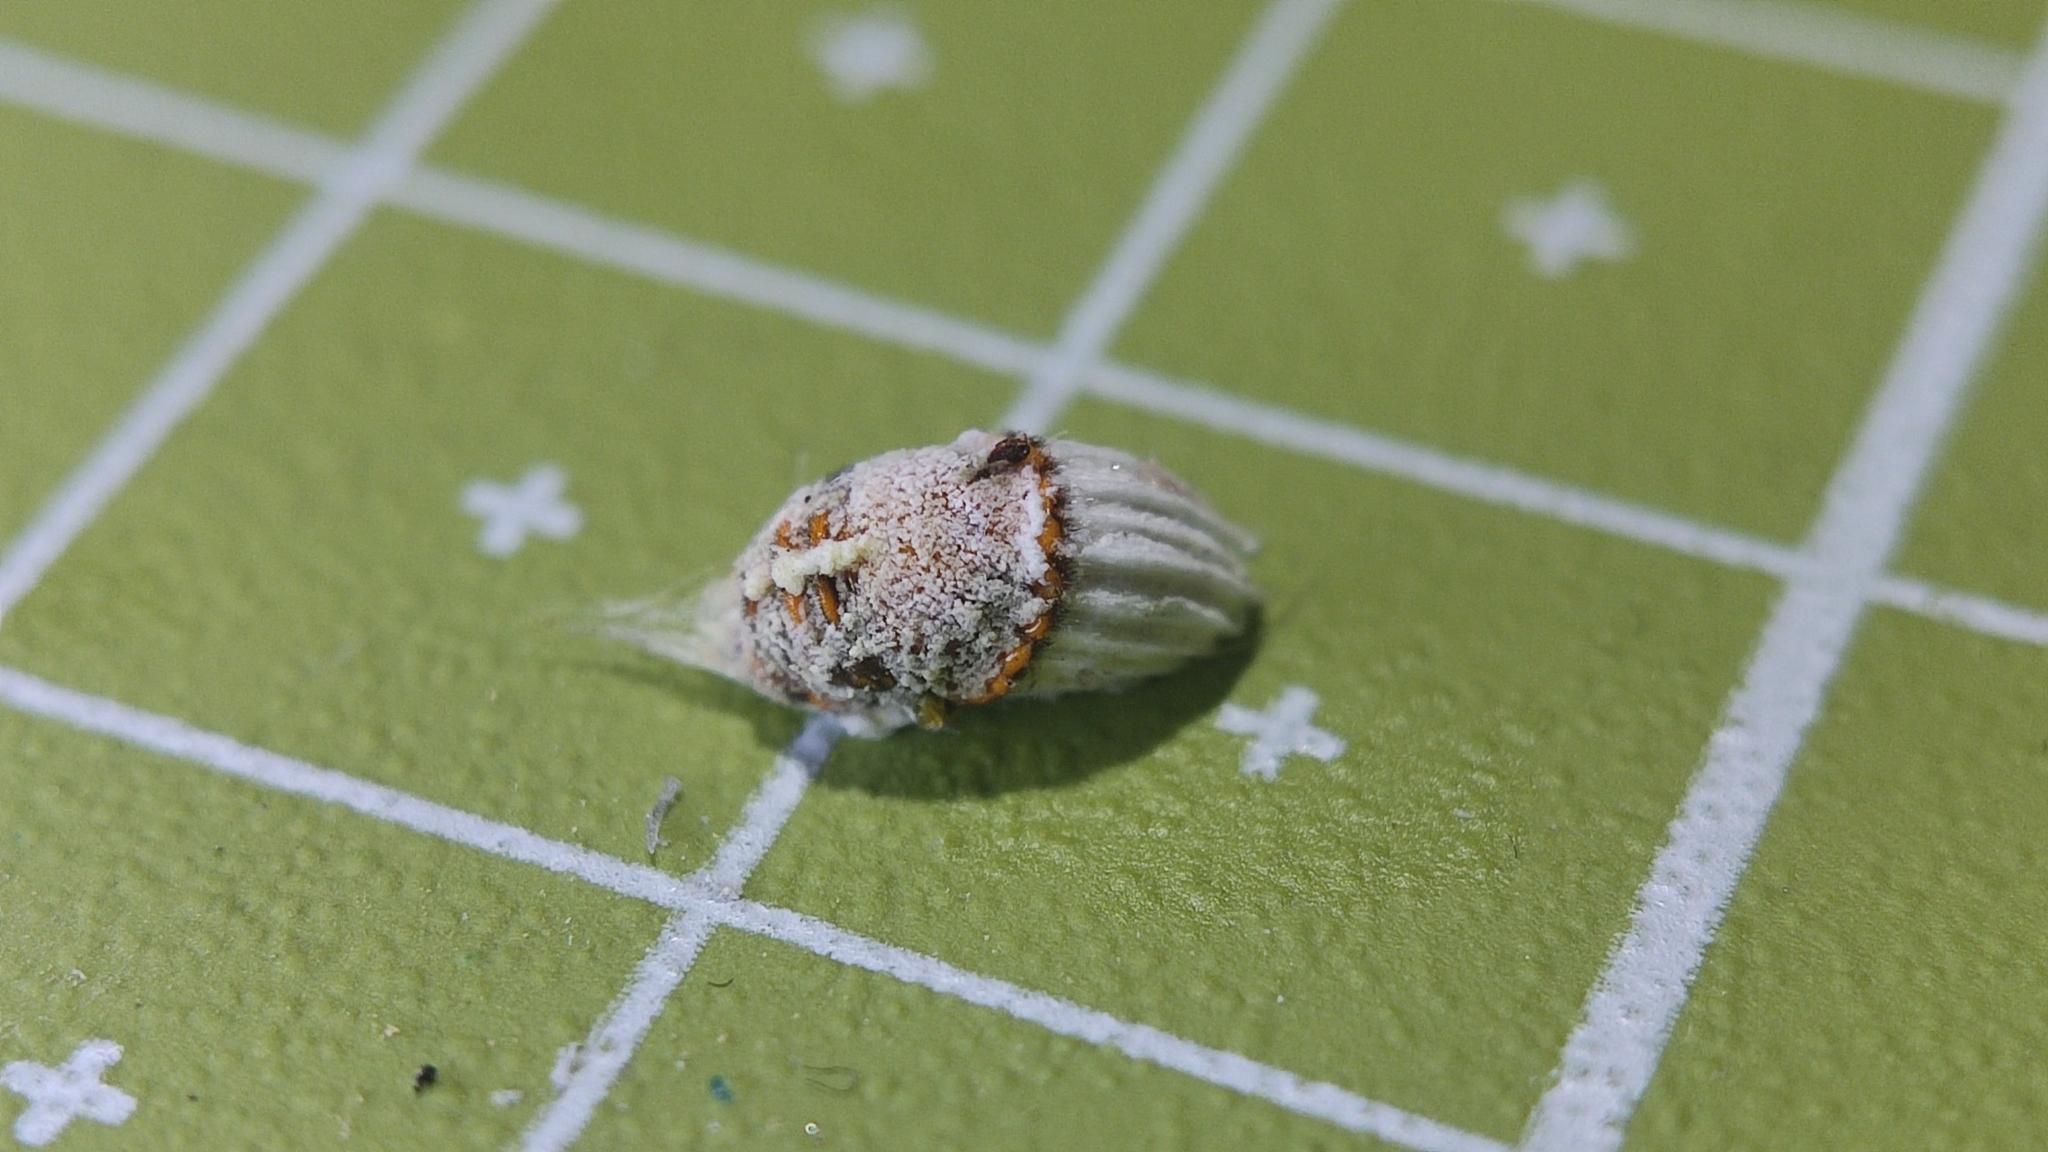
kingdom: Animalia
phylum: Arthropoda
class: Insecta
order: Hemiptera
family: Margarodidae
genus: Icerya
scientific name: Icerya purchasi
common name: Cottony cushion scale
